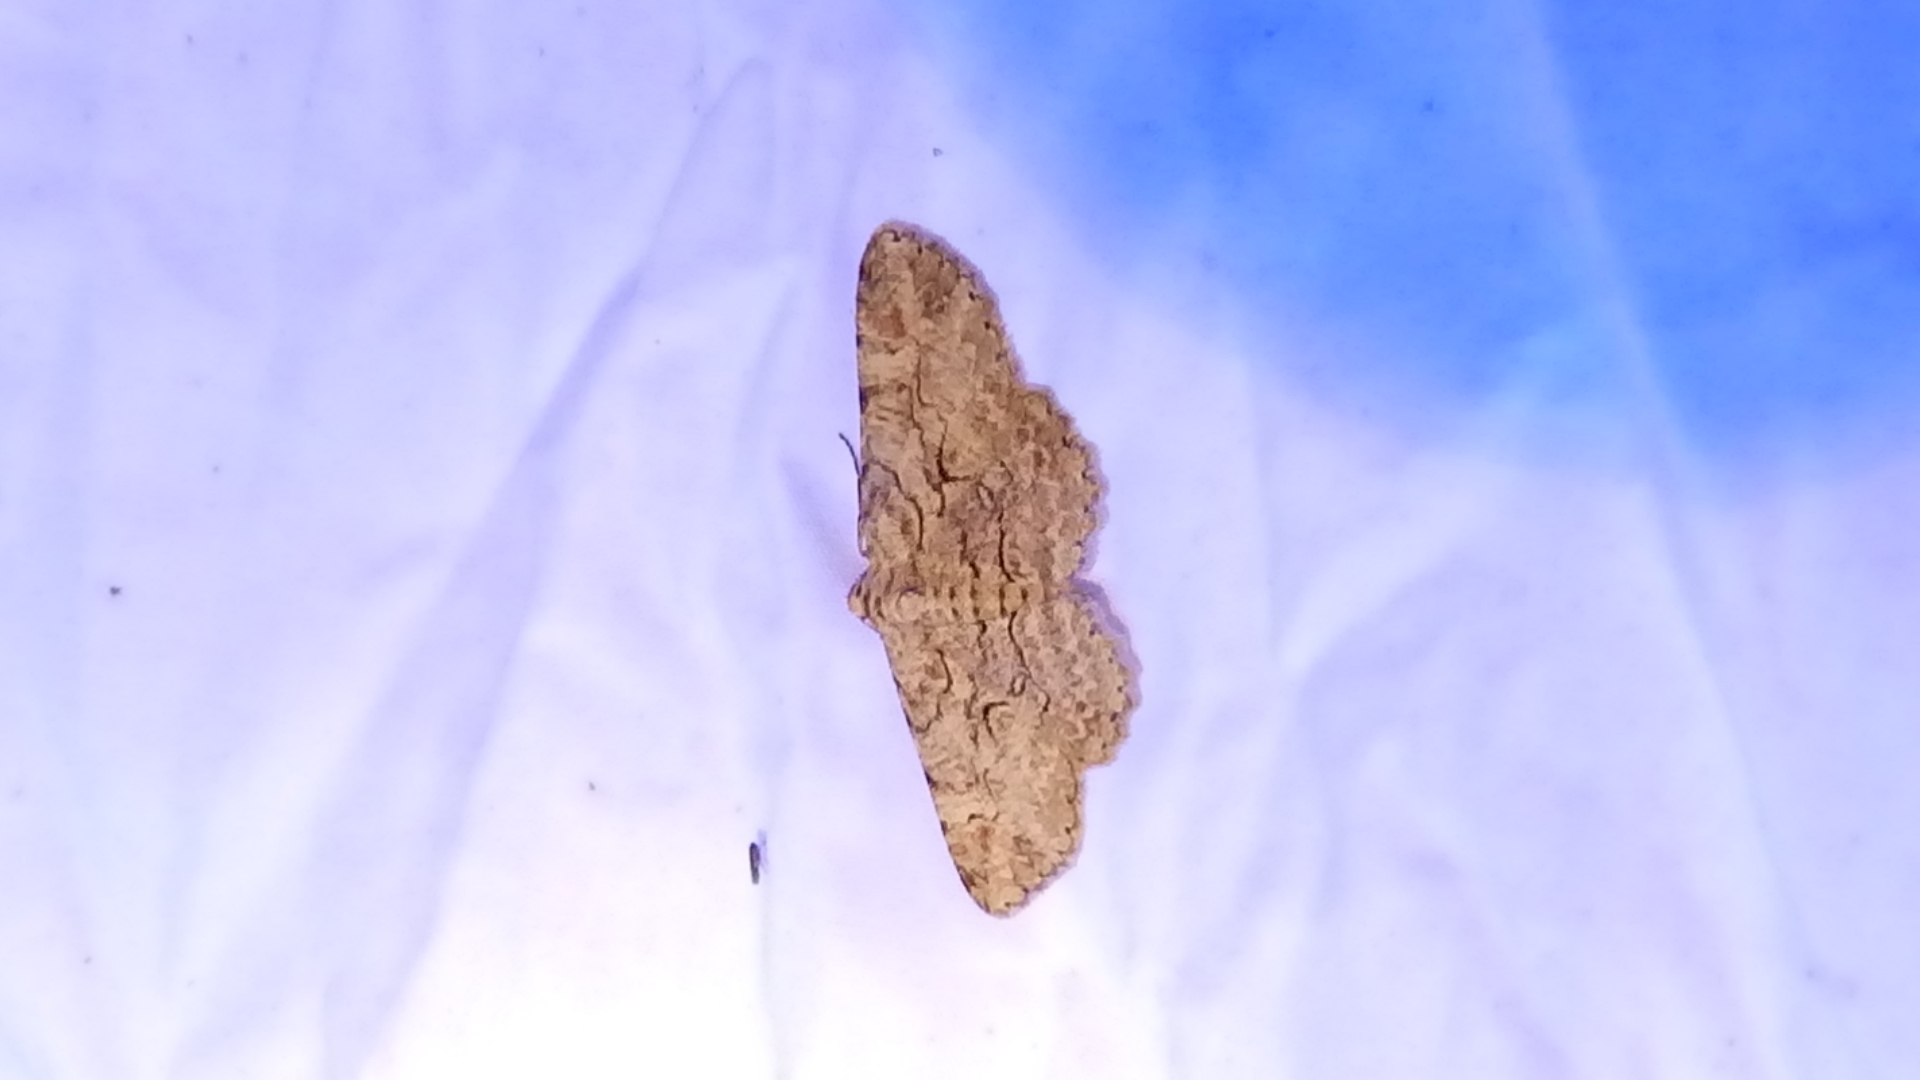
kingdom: Animalia
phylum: Arthropoda
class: Insecta
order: Lepidoptera
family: Geometridae
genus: Iridopsis
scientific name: Iridopsis defectaria
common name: Brown-shaded gray
